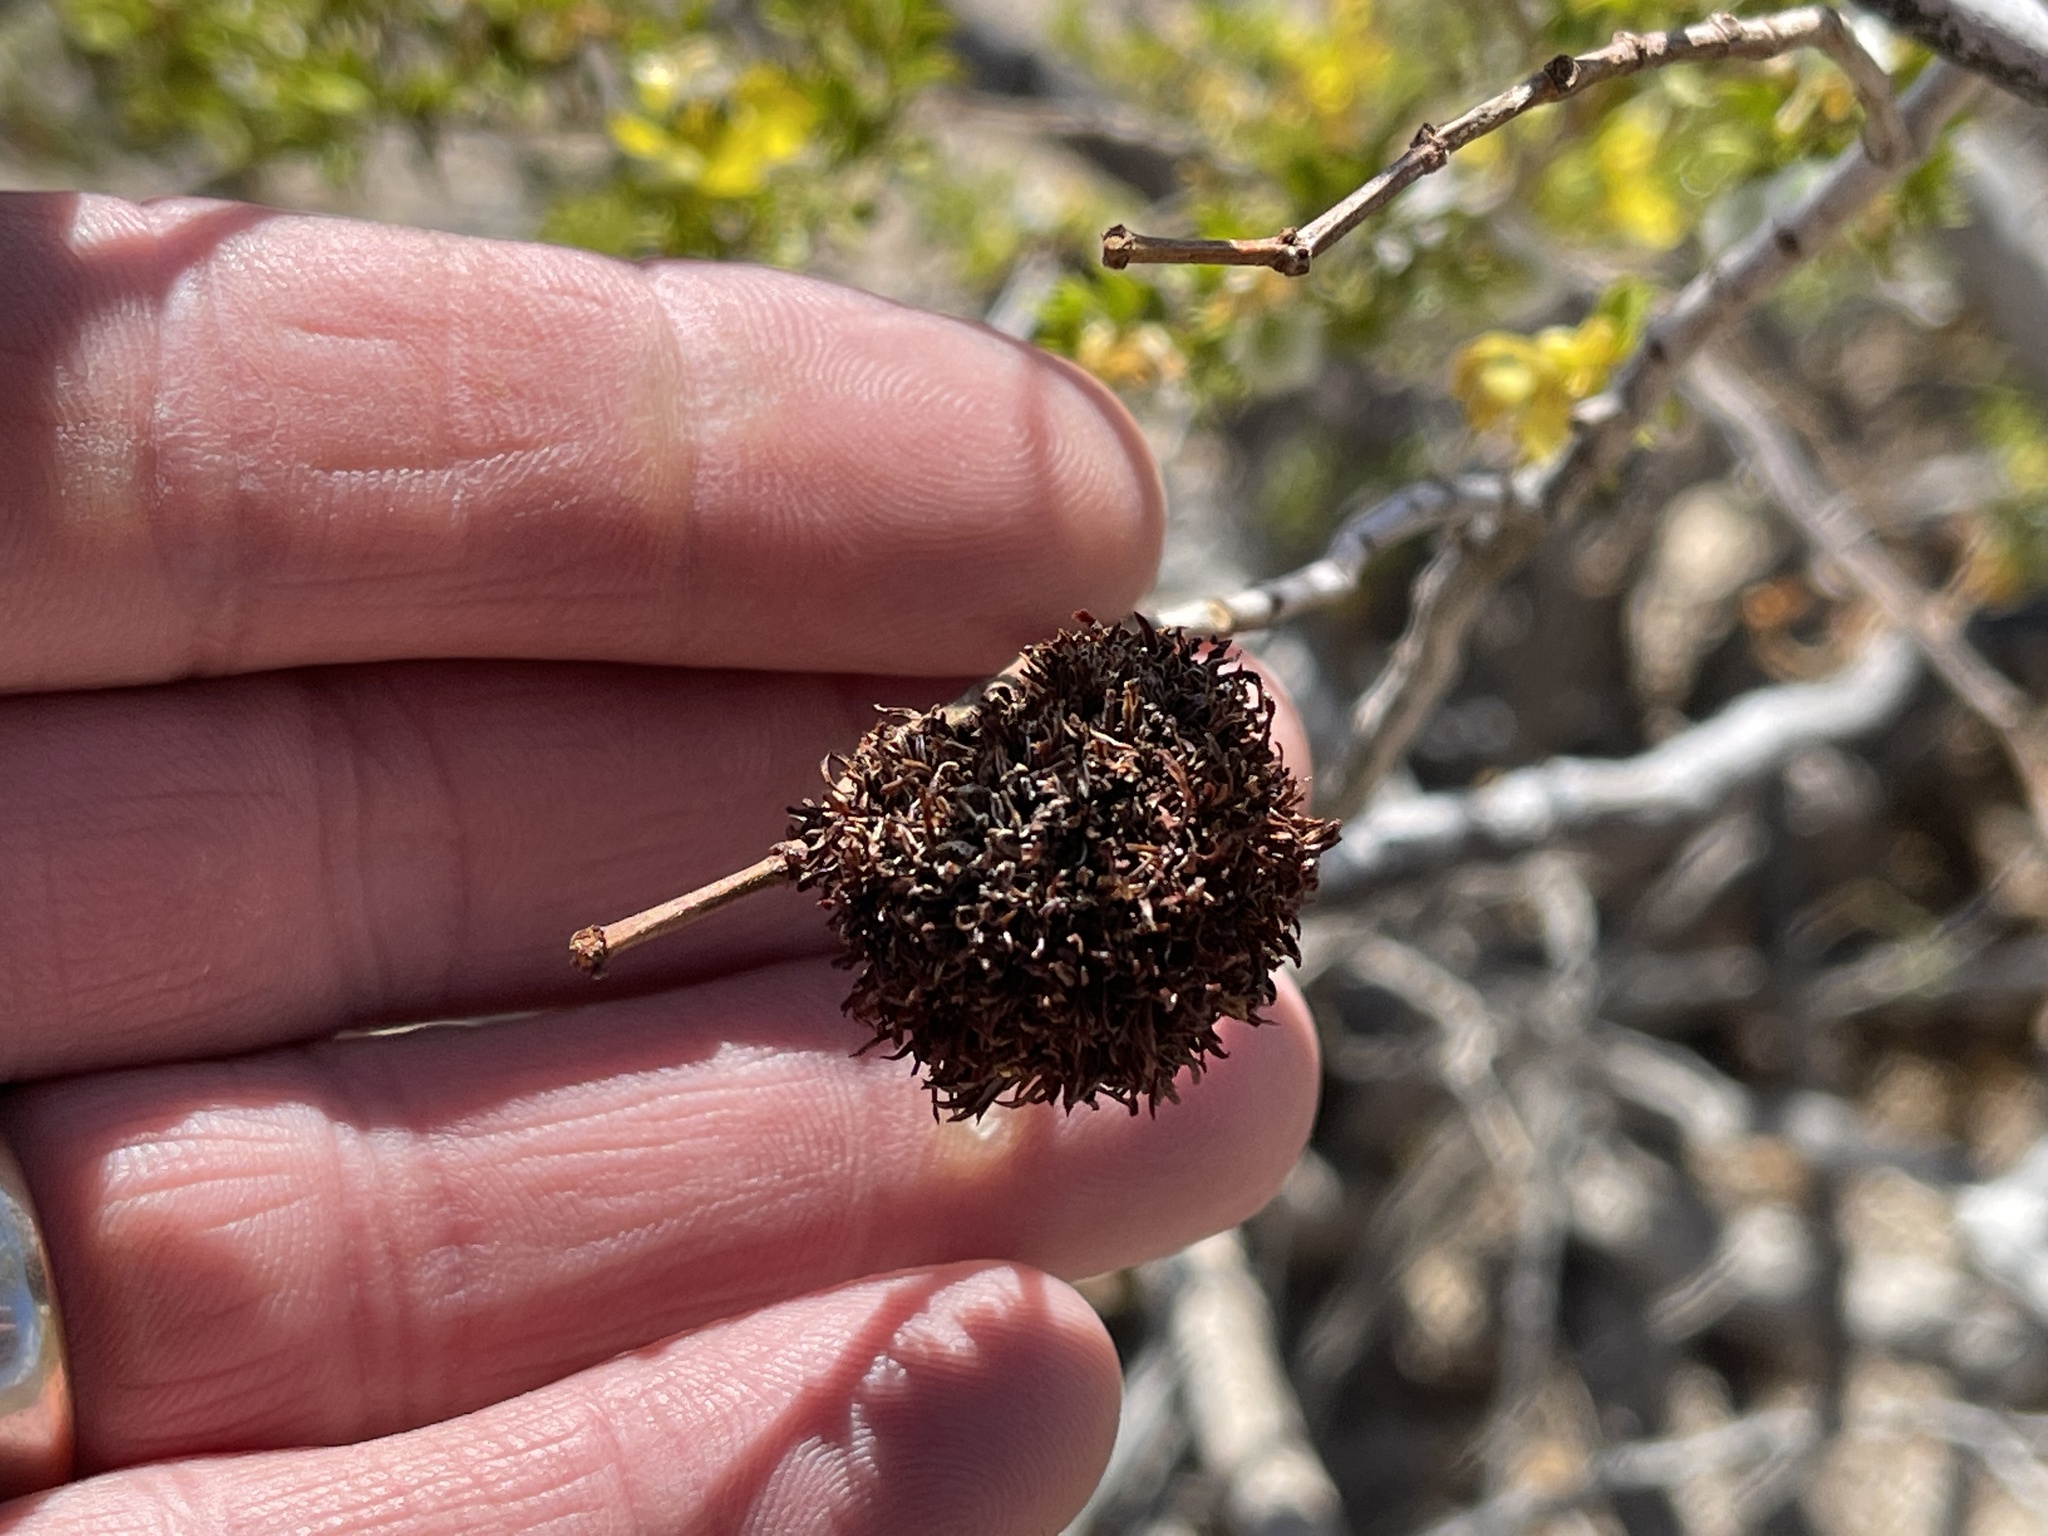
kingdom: Animalia
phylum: Arthropoda
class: Insecta
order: Diptera
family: Cecidomyiidae
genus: Asphondylia
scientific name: Asphondylia auripila
